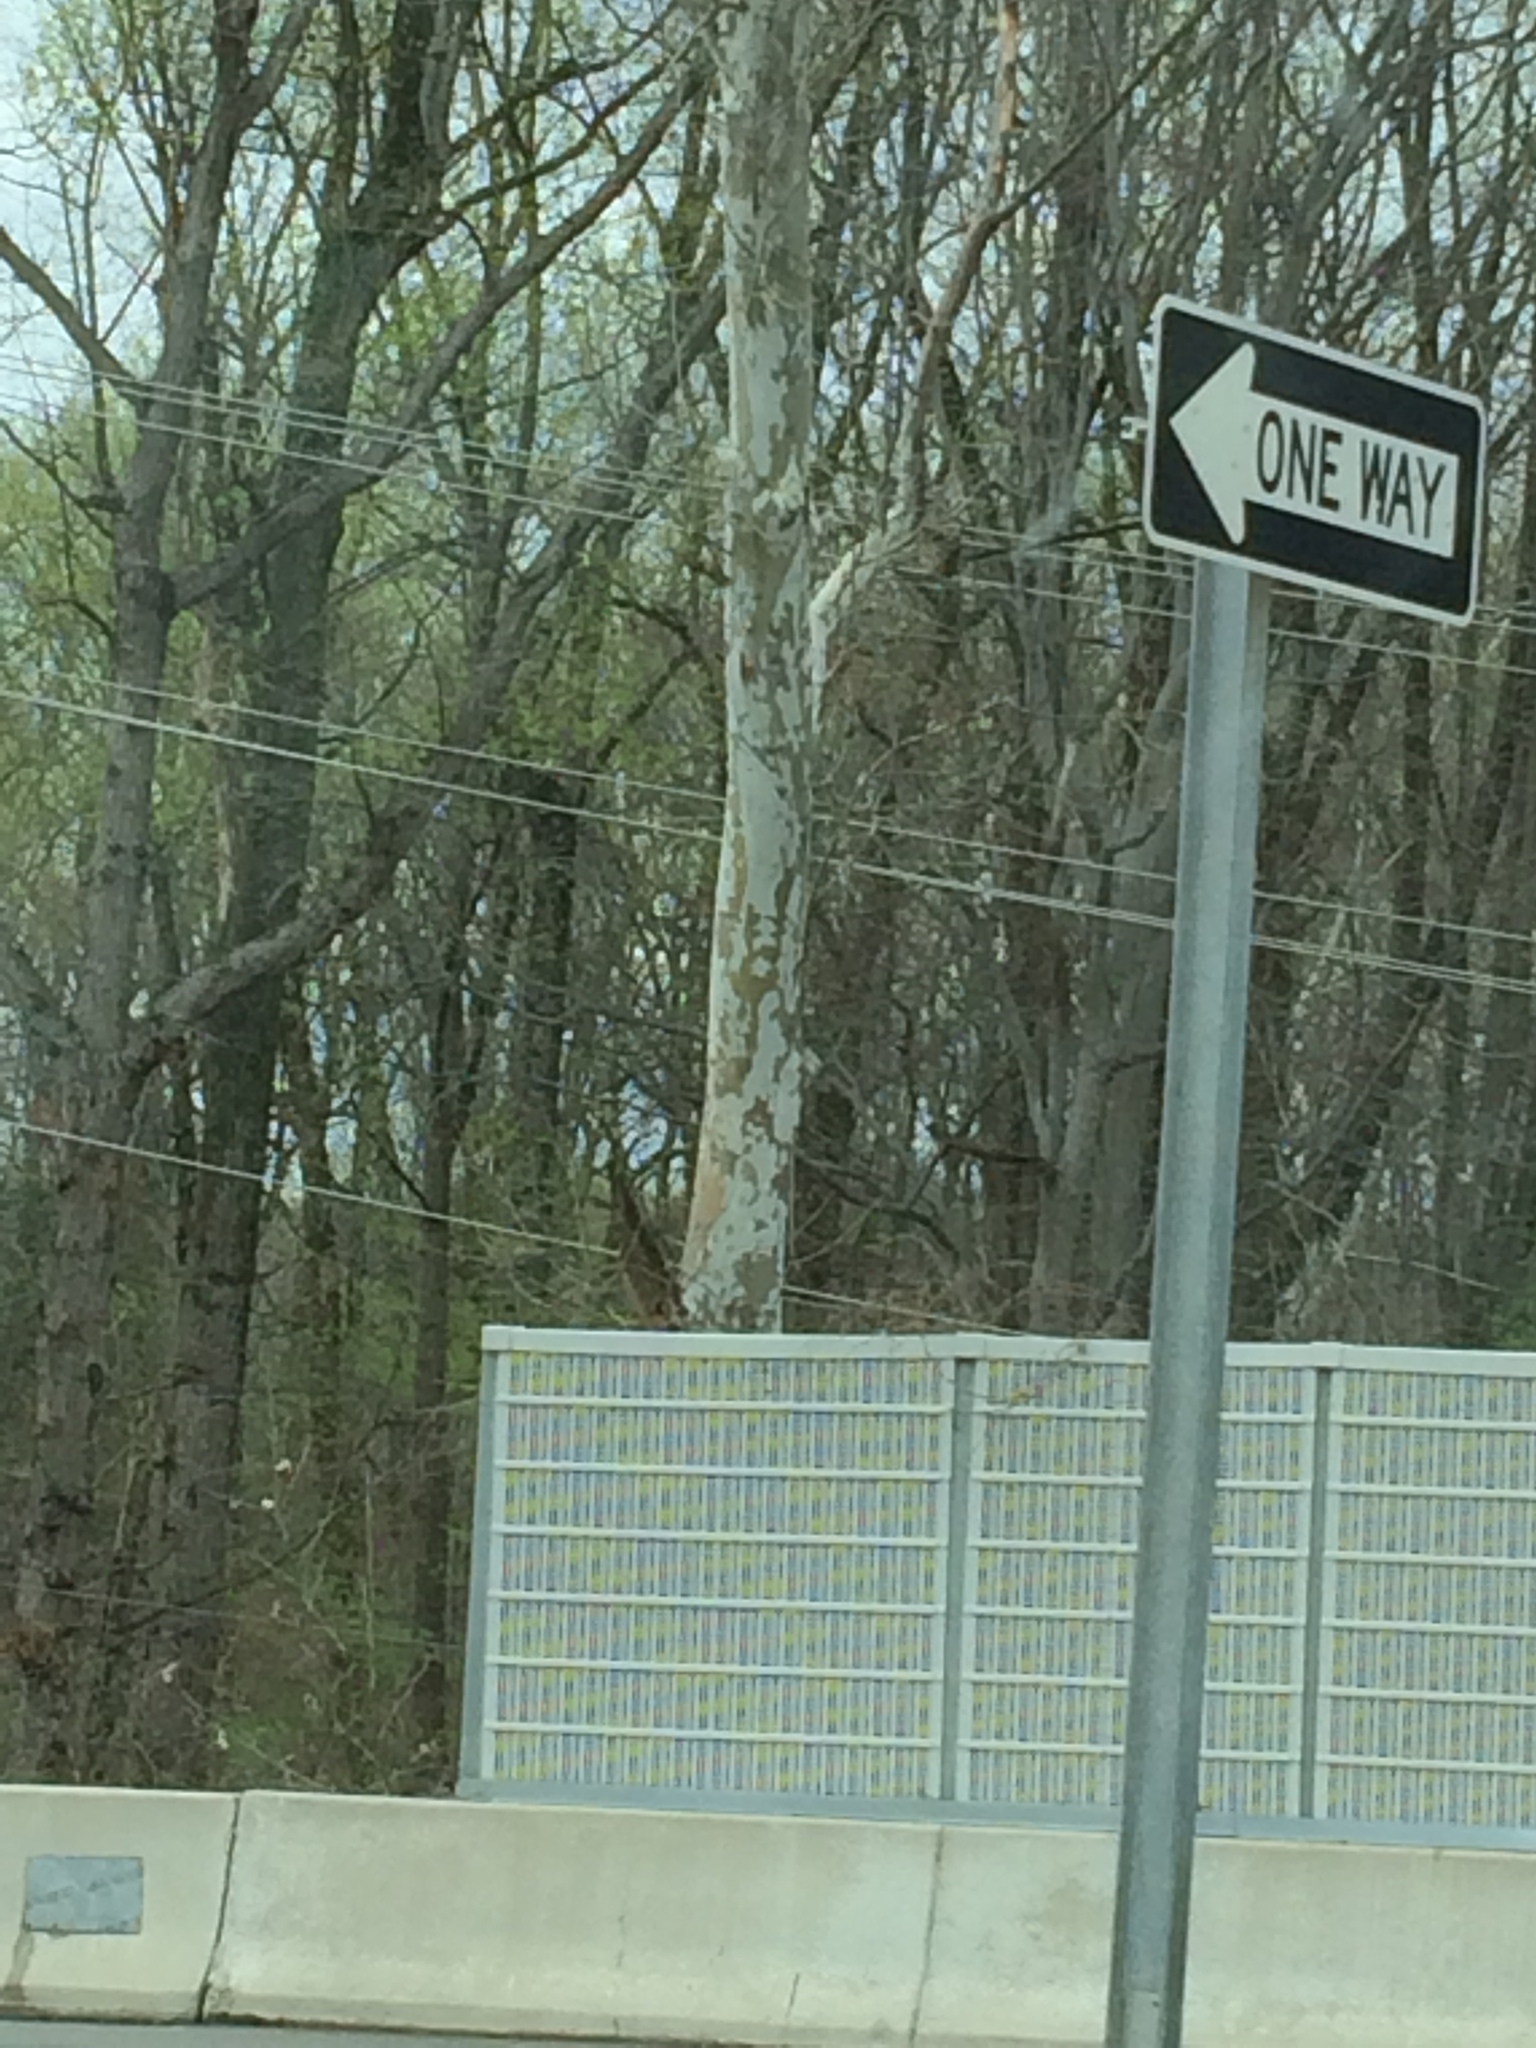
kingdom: Plantae
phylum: Tracheophyta
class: Magnoliopsida
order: Proteales
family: Platanaceae
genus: Platanus
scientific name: Platanus occidentalis
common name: American sycamore
